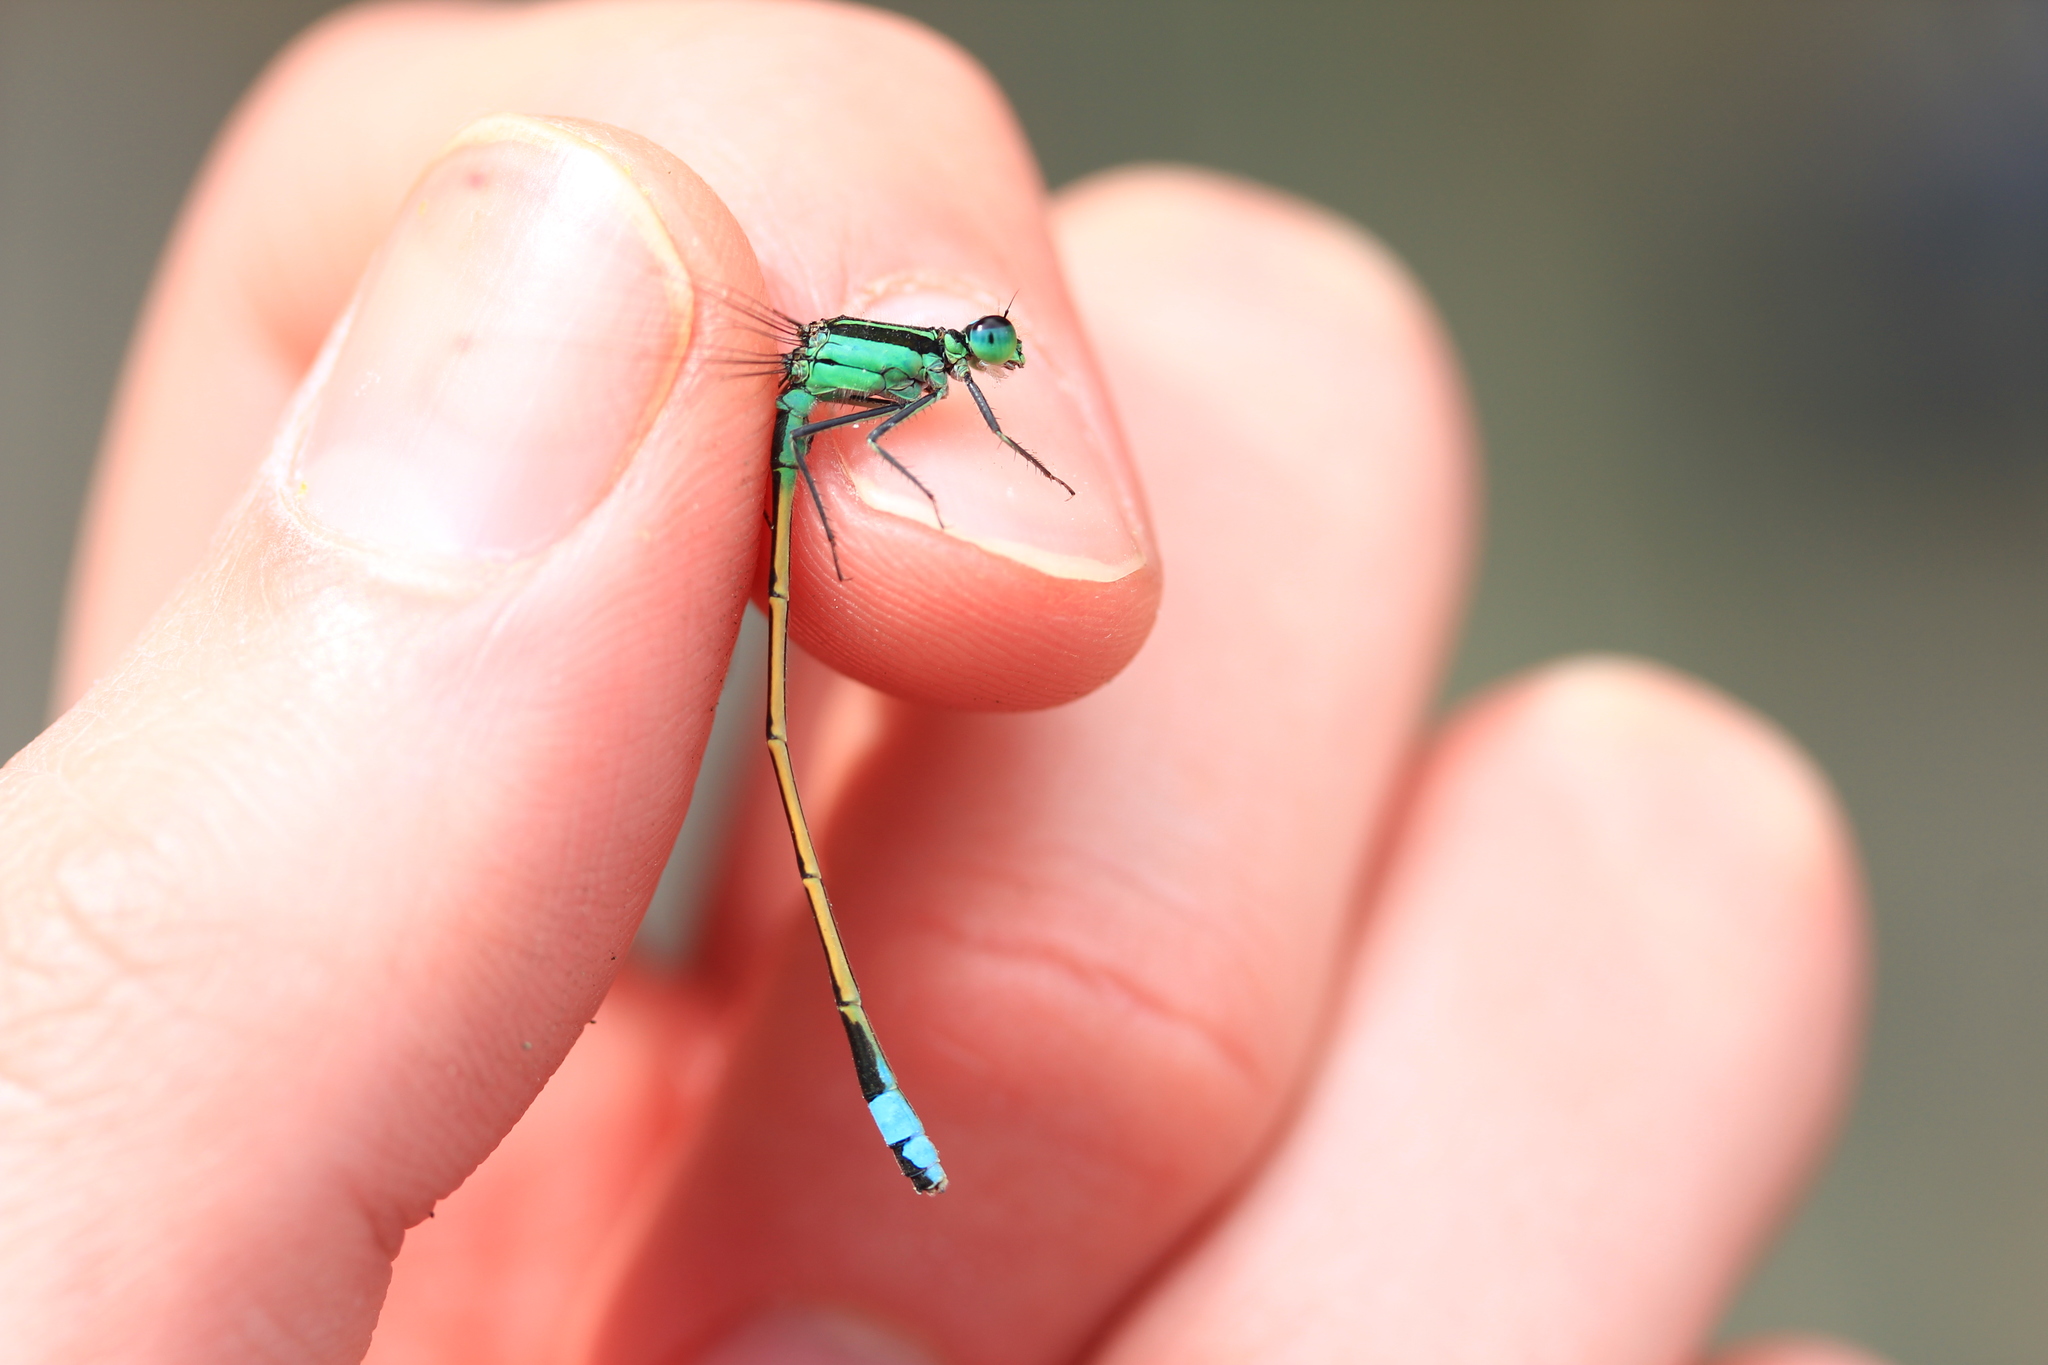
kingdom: Animalia
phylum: Arthropoda
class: Insecta
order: Odonata
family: Coenagrionidae
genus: Ischnura
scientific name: Ischnura ramburii
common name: Rambur's forktail
